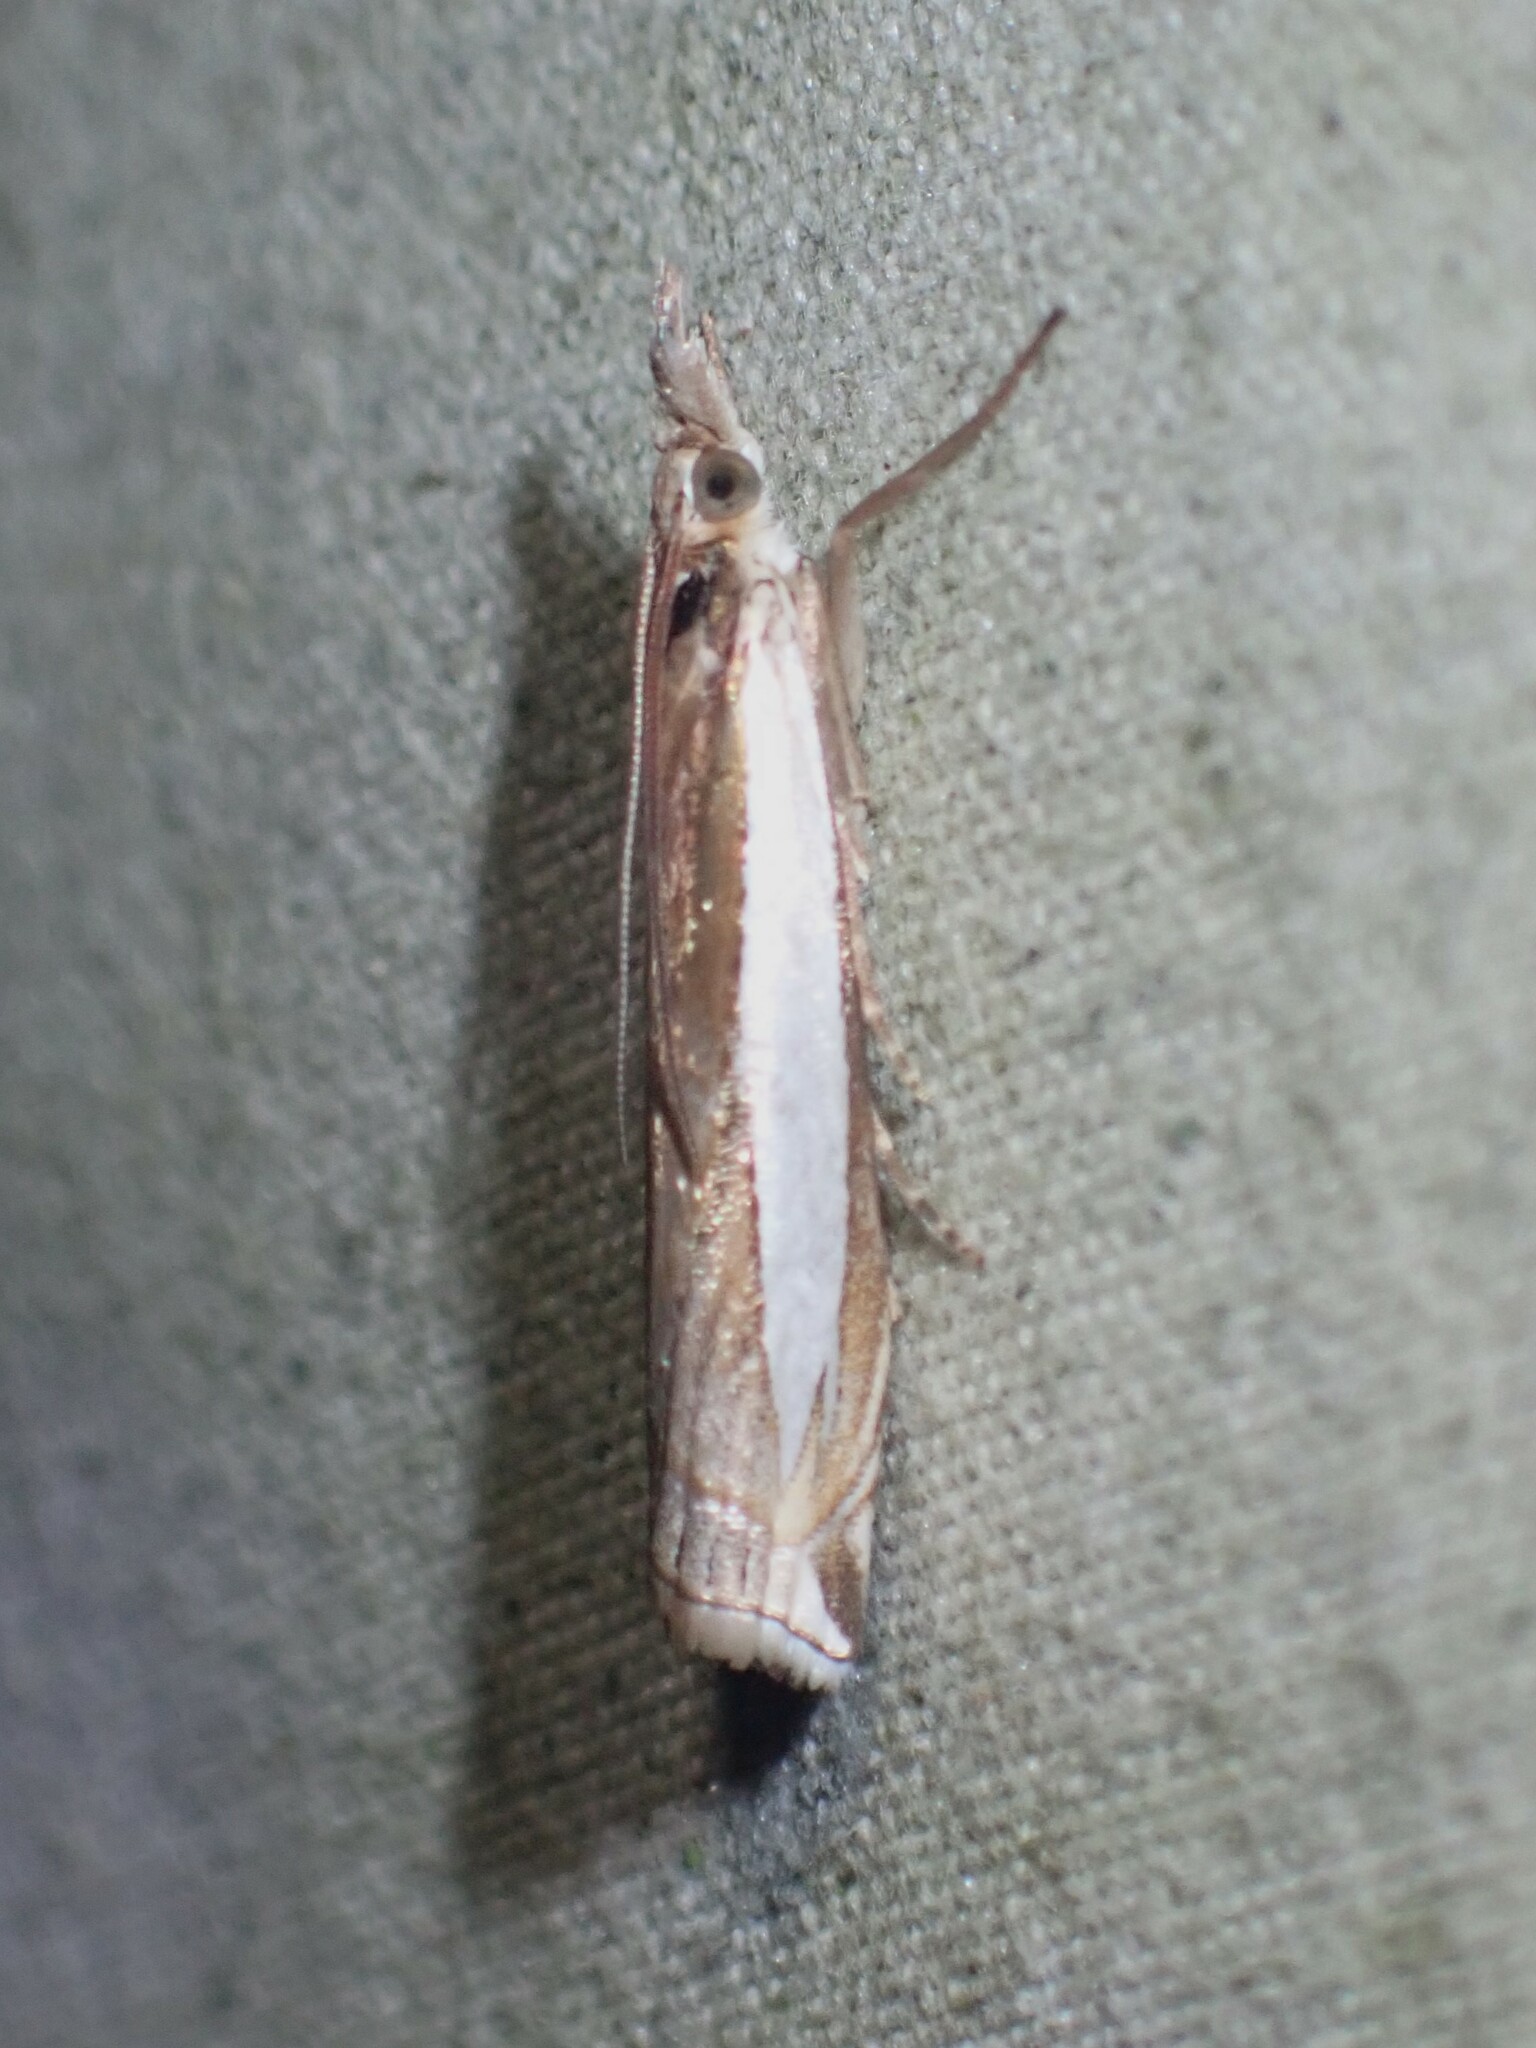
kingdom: Animalia
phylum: Arthropoda
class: Insecta
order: Lepidoptera
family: Crambidae
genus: Crambus
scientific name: Crambus leachellus
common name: Leach's grass-veneer
